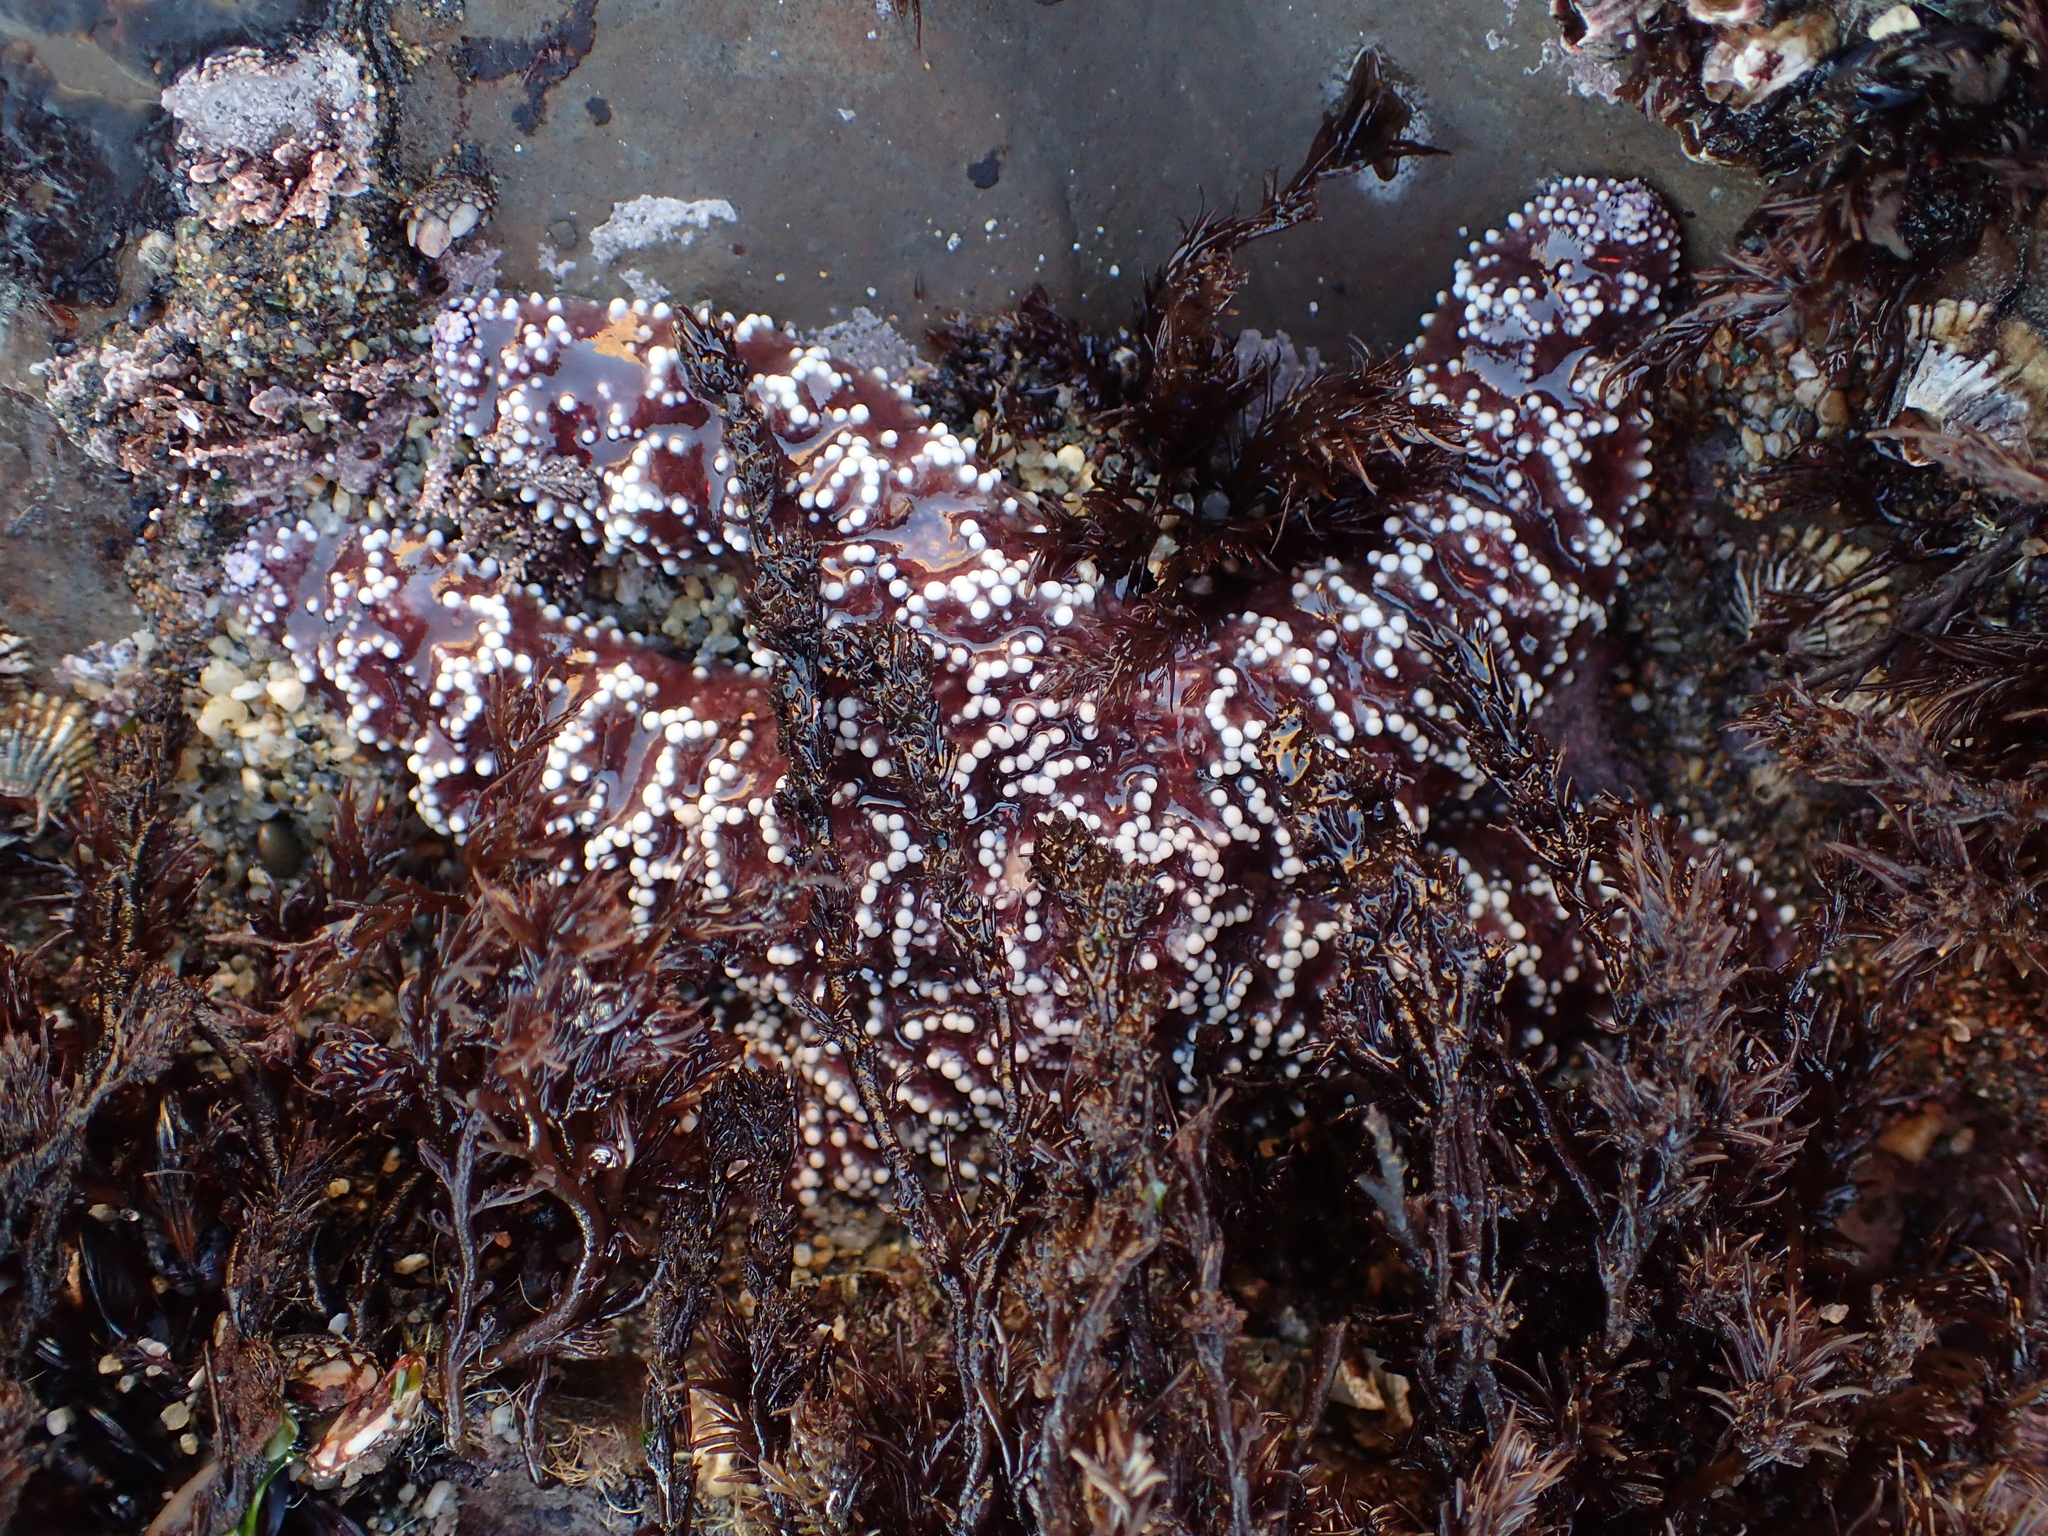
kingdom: Animalia
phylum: Echinodermata
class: Asteroidea
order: Forcipulatida
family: Asteriidae
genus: Pisaster
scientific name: Pisaster ochraceus
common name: Ochre stars
